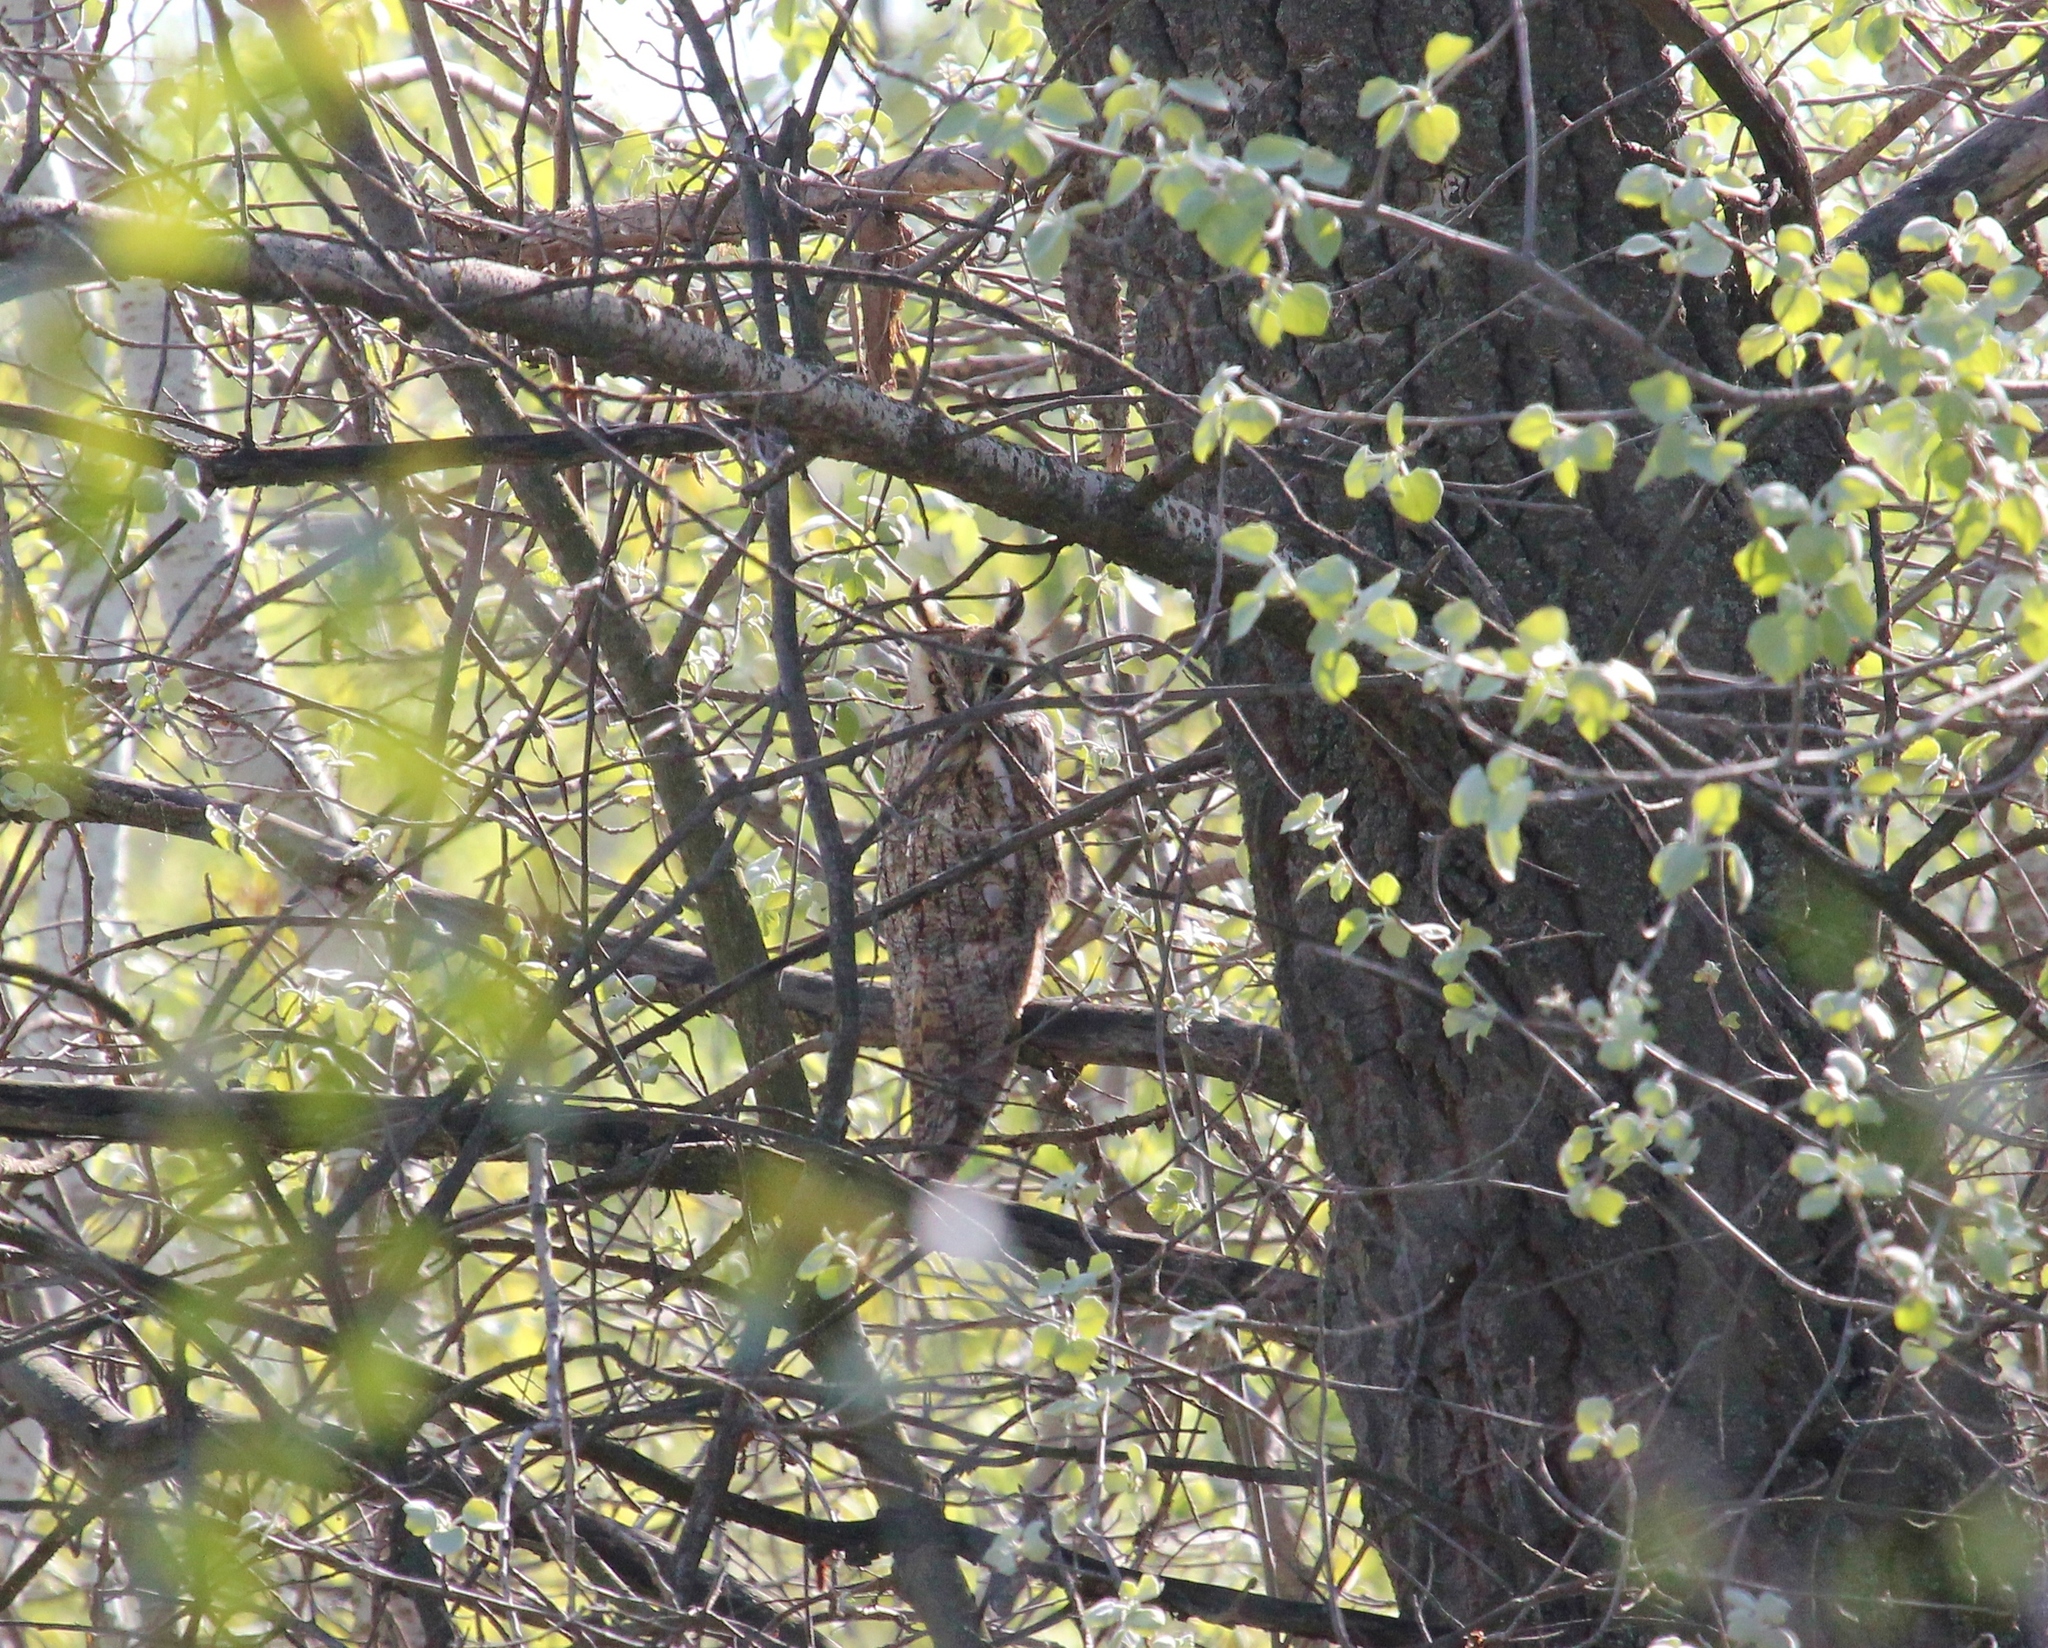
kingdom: Animalia
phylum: Chordata
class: Aves
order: Strigiformes
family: Strigidae
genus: Asio
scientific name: Asio otus
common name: Long-eared owl
